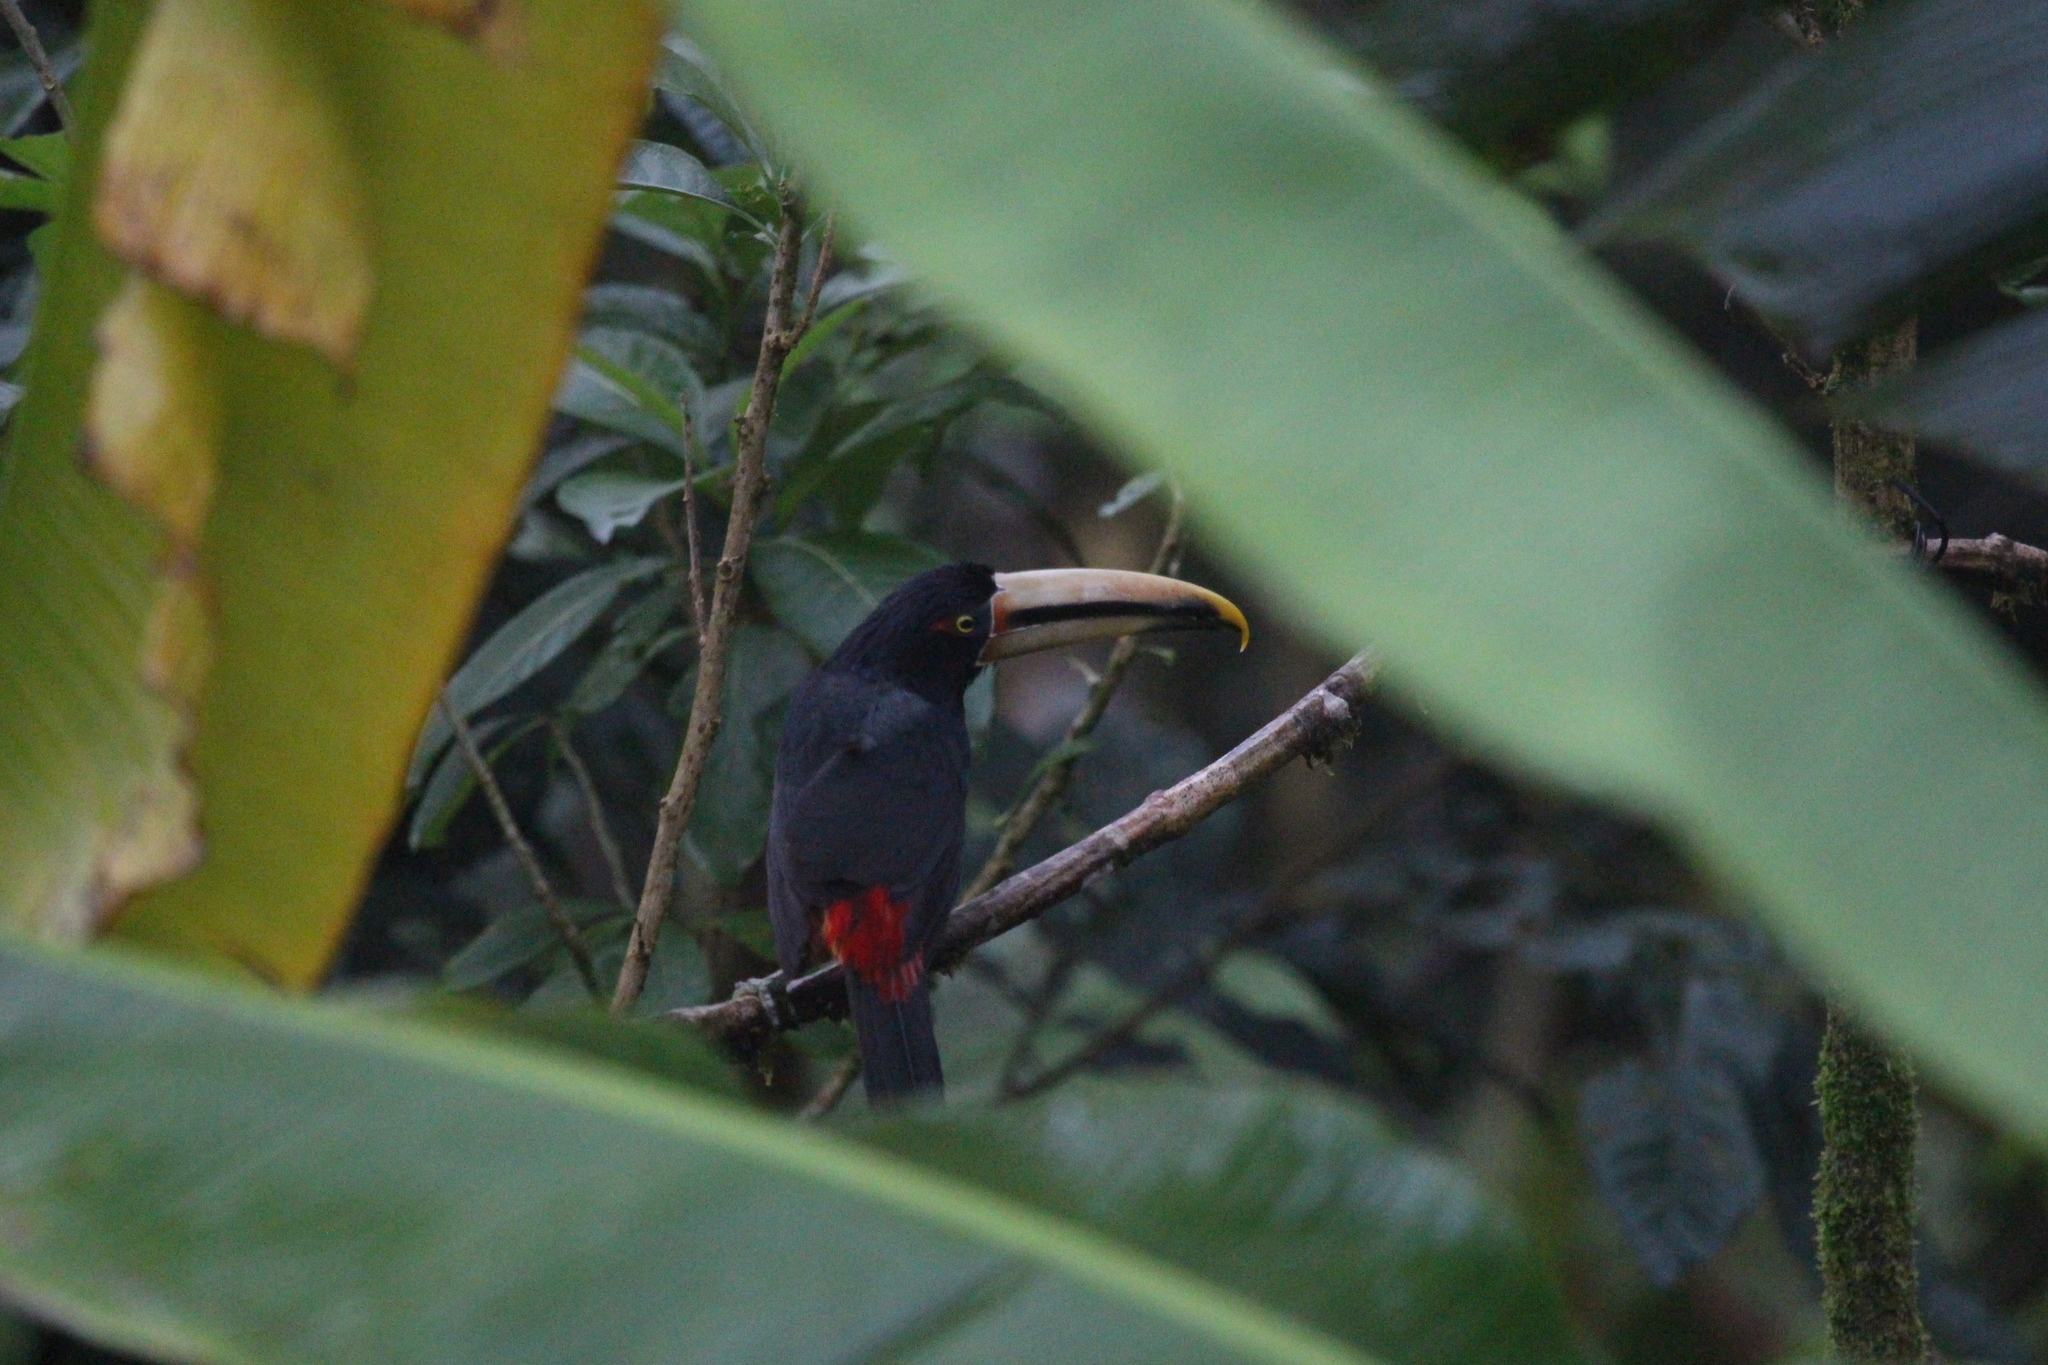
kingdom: Animalia
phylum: Chordata
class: Aves
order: Piciformes
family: Ramphastidae
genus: Pteroglossus
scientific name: Pteroglossus torquatus
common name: Collared aracari
